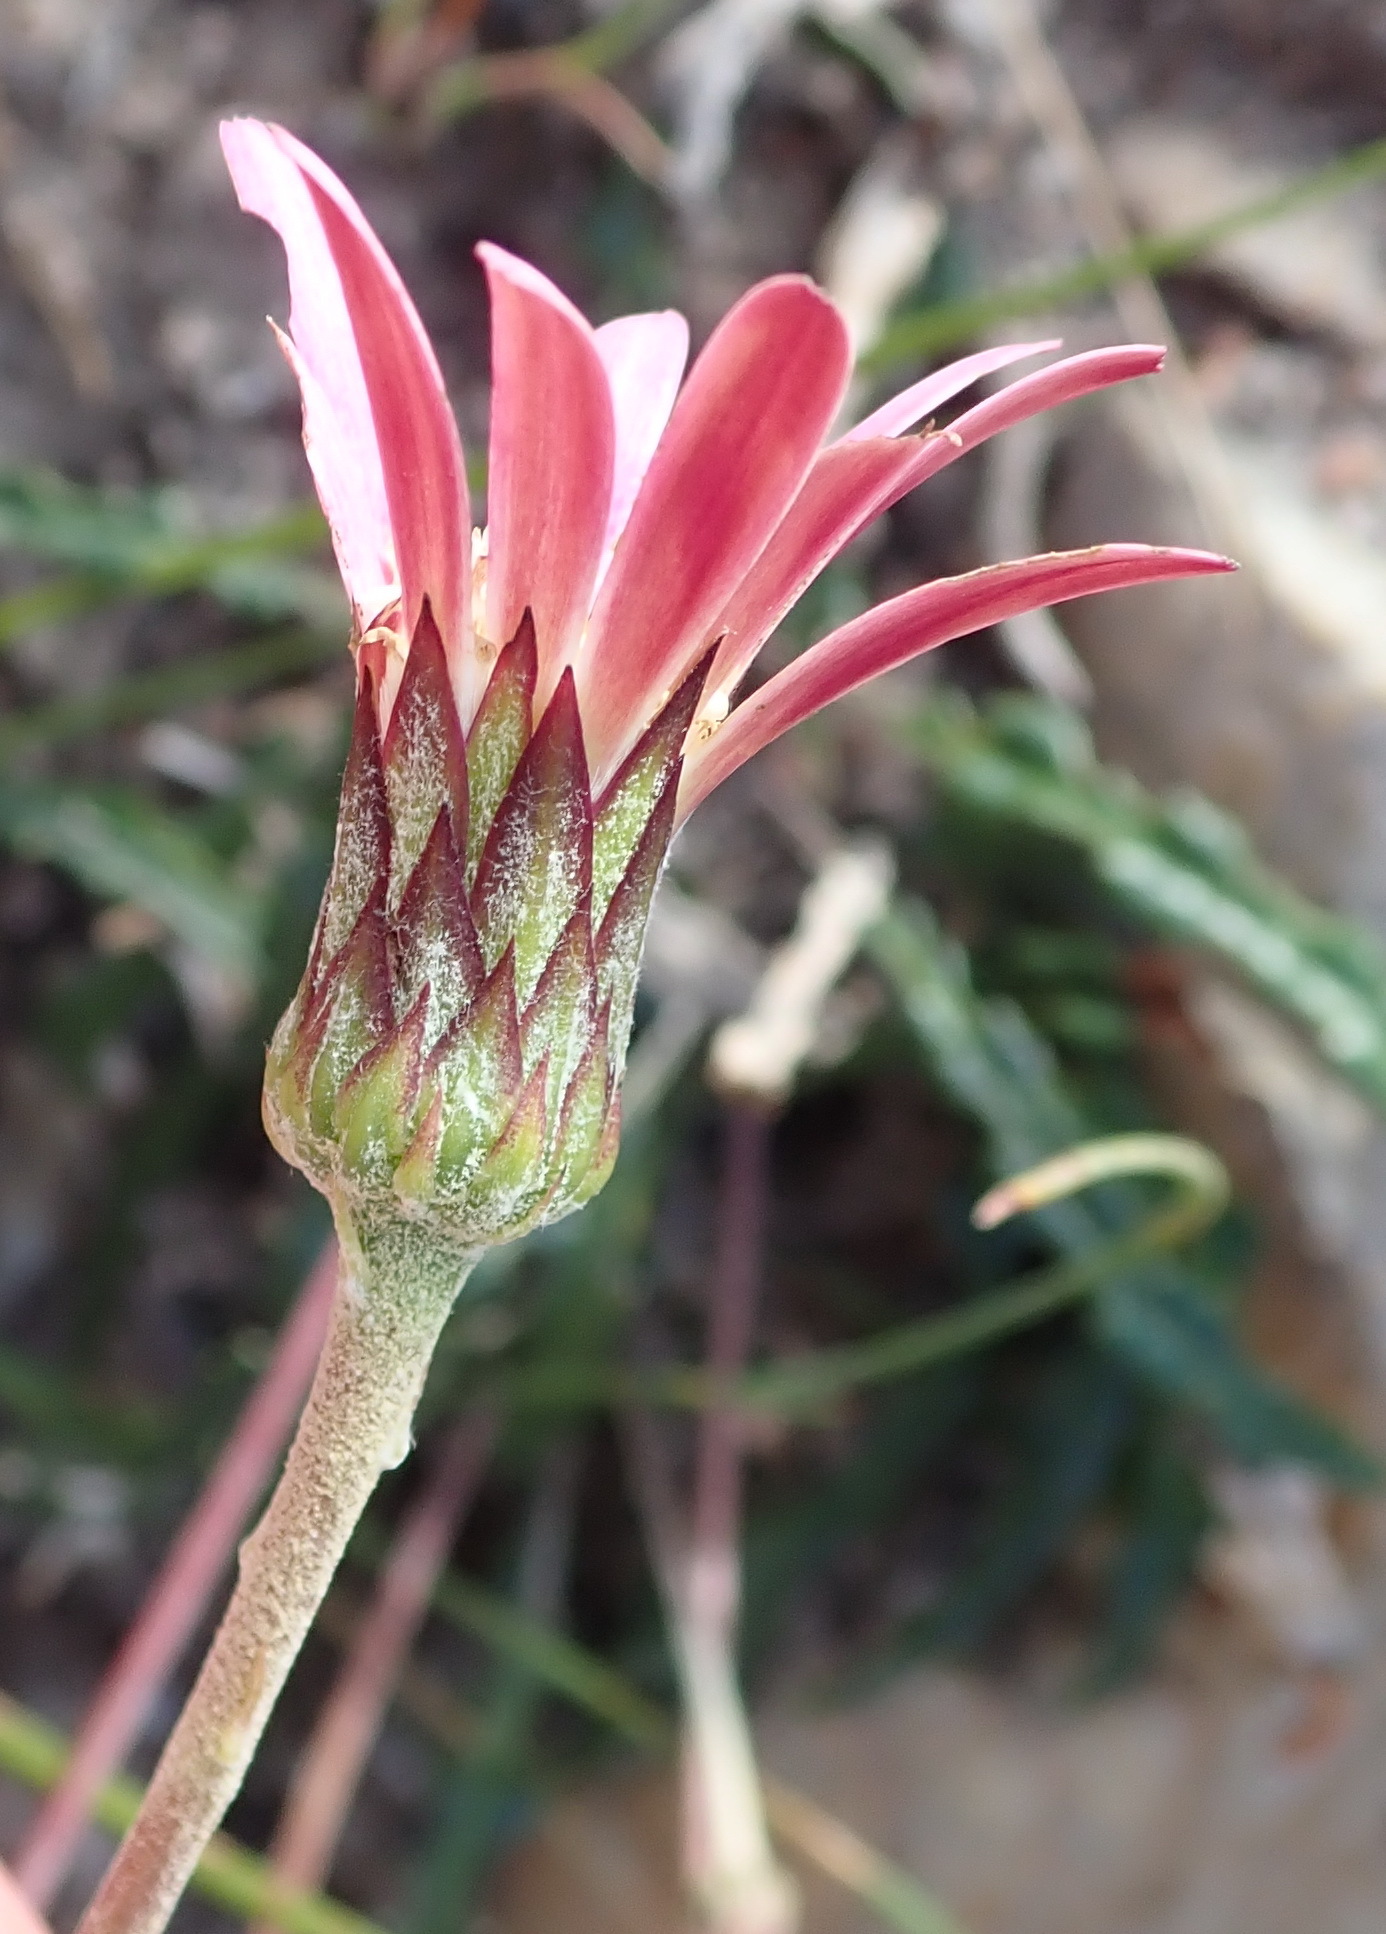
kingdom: Plantae
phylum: Tracheophyta
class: Magnoliopsida
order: Asterales
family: Asteraceae
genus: Gerbera
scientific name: Gerbera crocea
